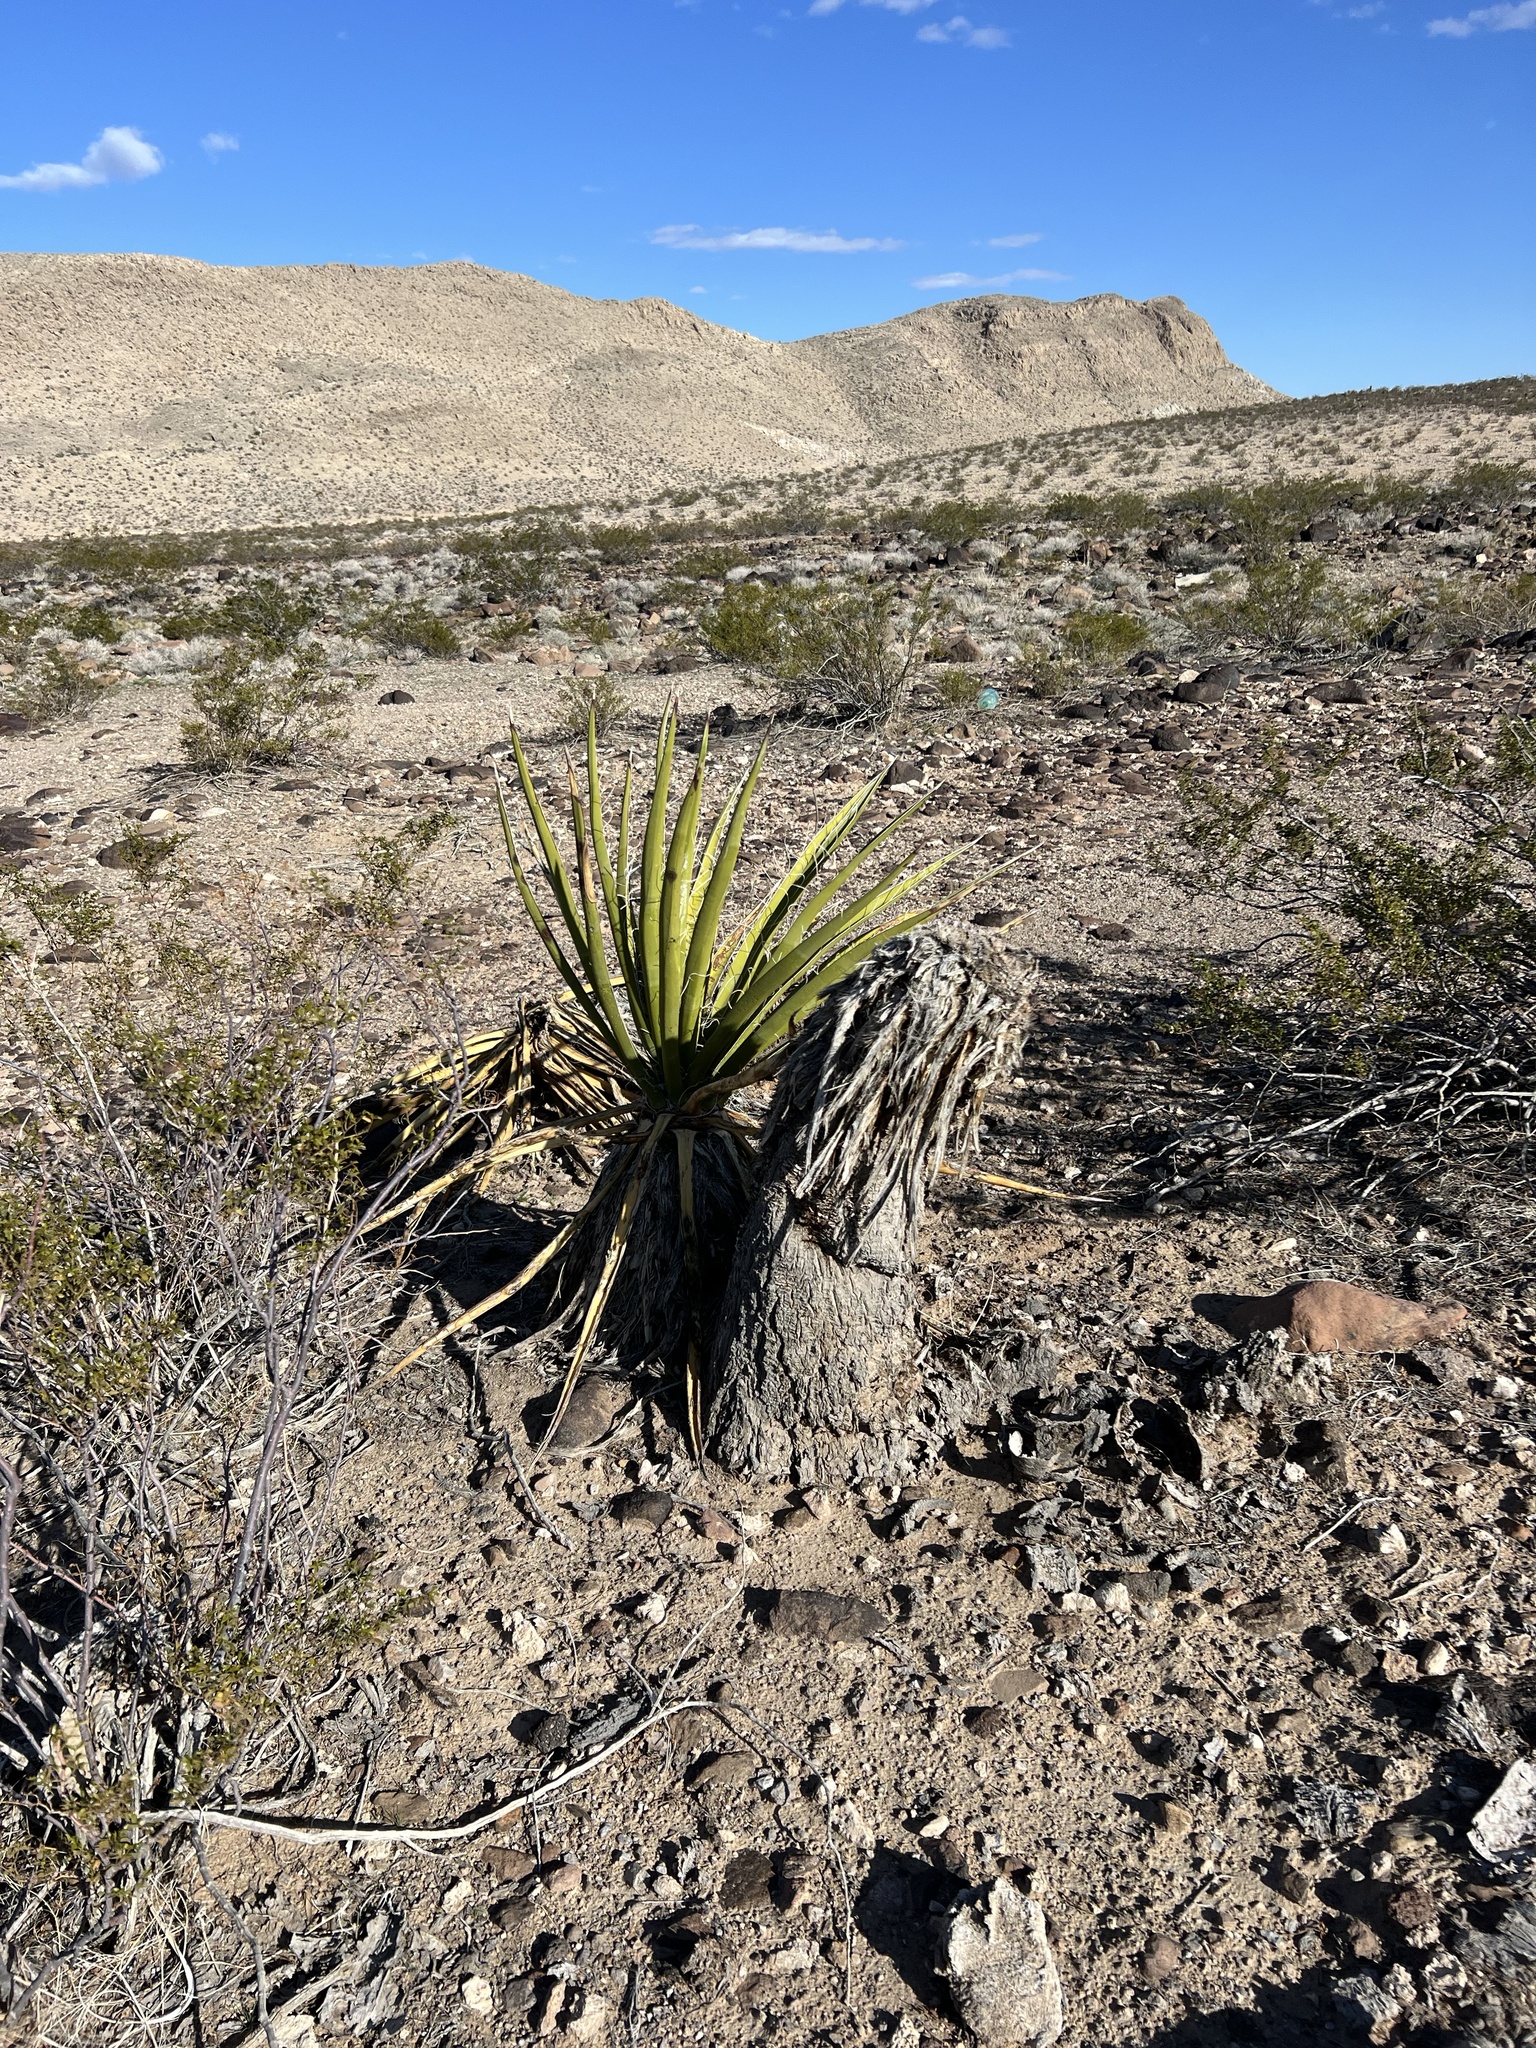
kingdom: Plantae
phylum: Tracheophyta
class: Liliopsida
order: Asparagales
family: Asparagaceae
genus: Yucca
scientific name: Yucca schidigera
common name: Mojave yucca
